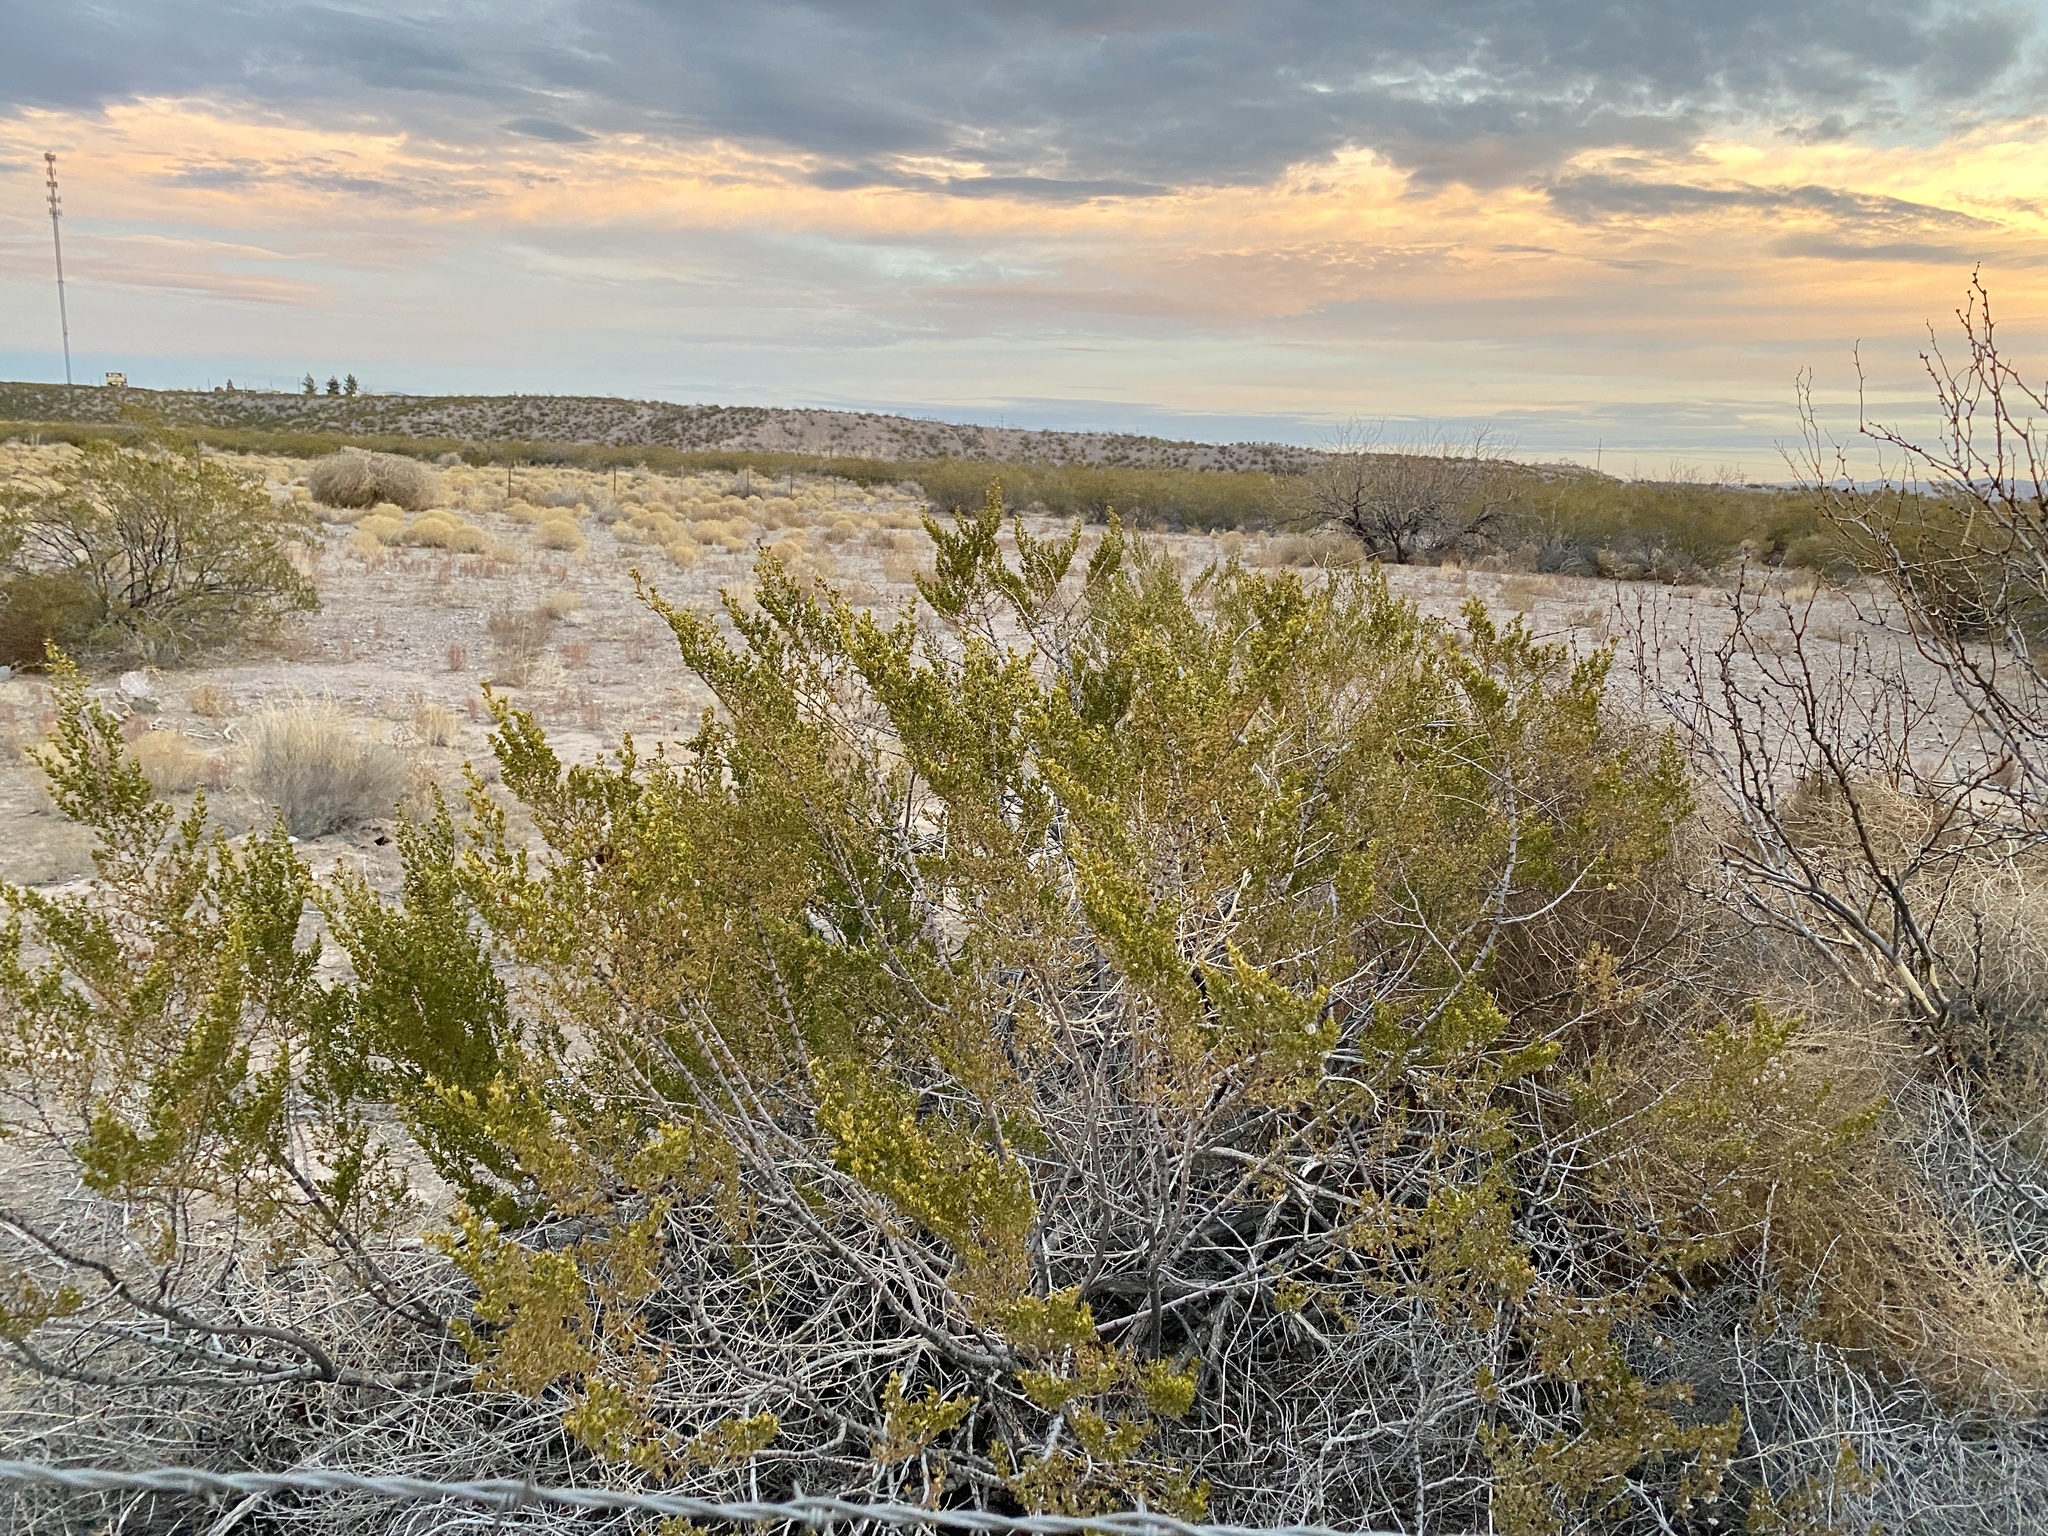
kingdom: Plantae
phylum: Tracheophyta
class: Magnoliopsida
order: Zygophyllales
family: Zygophyllaceae
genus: Larrea
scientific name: Larrea tridentata
